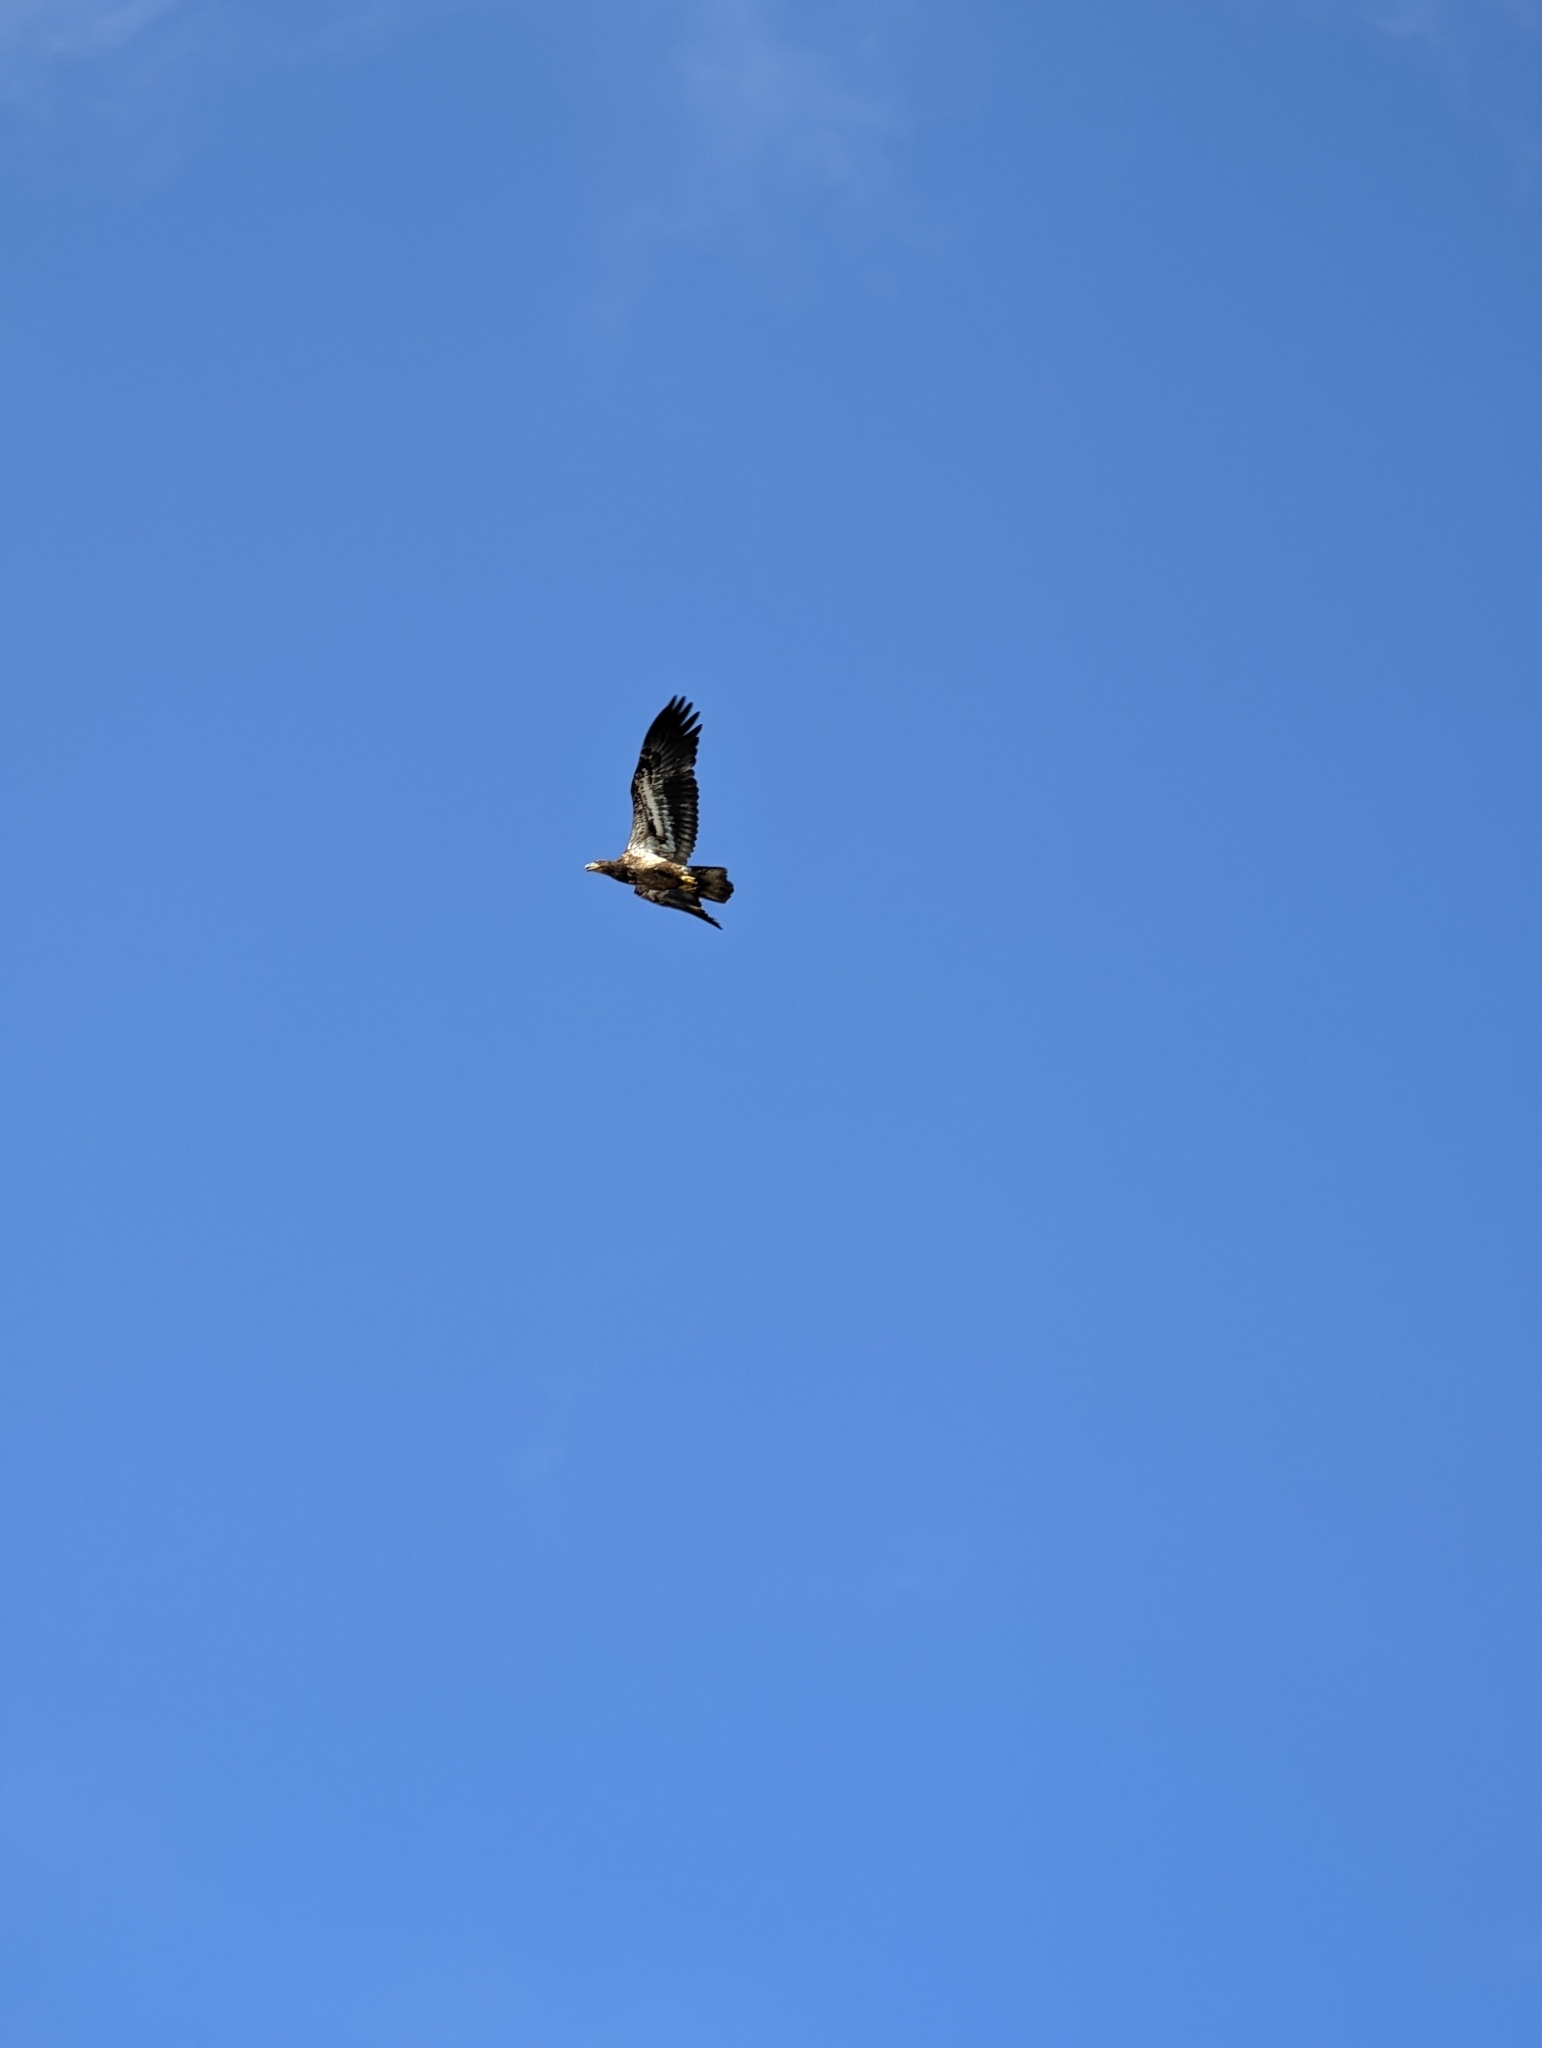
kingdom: Animalia
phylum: Chordata
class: Aves
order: Accipitriformes
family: Accipitridae
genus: Haliaeetus
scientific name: Haliaeetus leucocephalus
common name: Bald eagle
